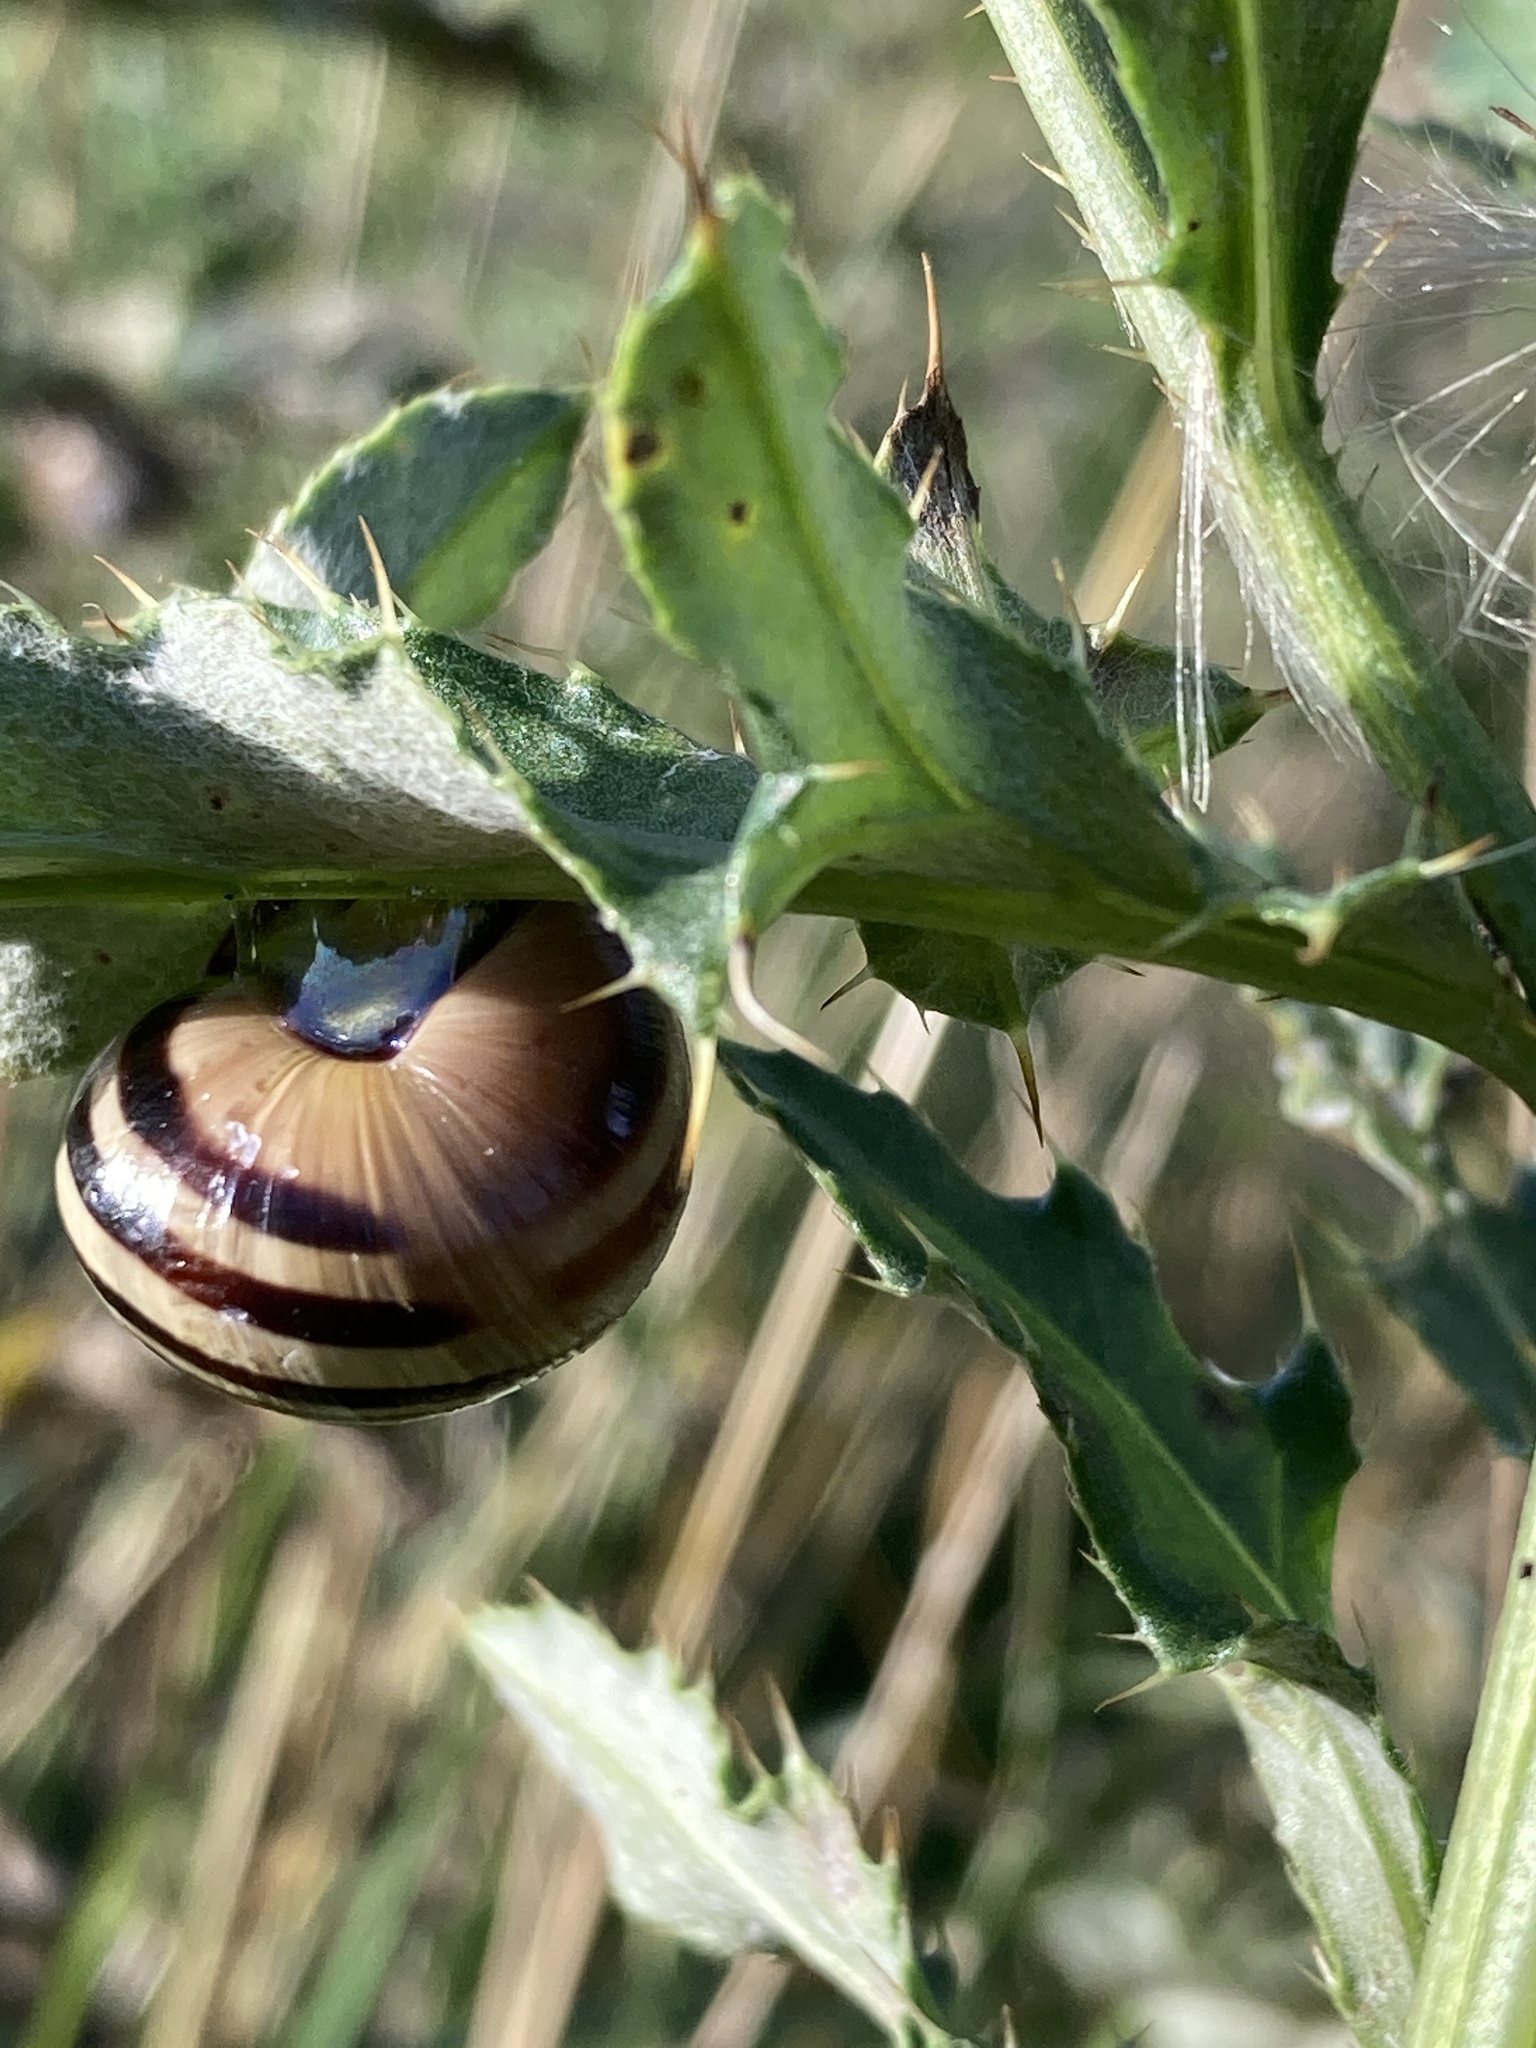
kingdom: Animalia
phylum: Mollusca
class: Gastropoda
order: Stylommatophora
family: Helicidae
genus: Cepaea
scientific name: Cepaea nemoralis
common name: Grovesnail
